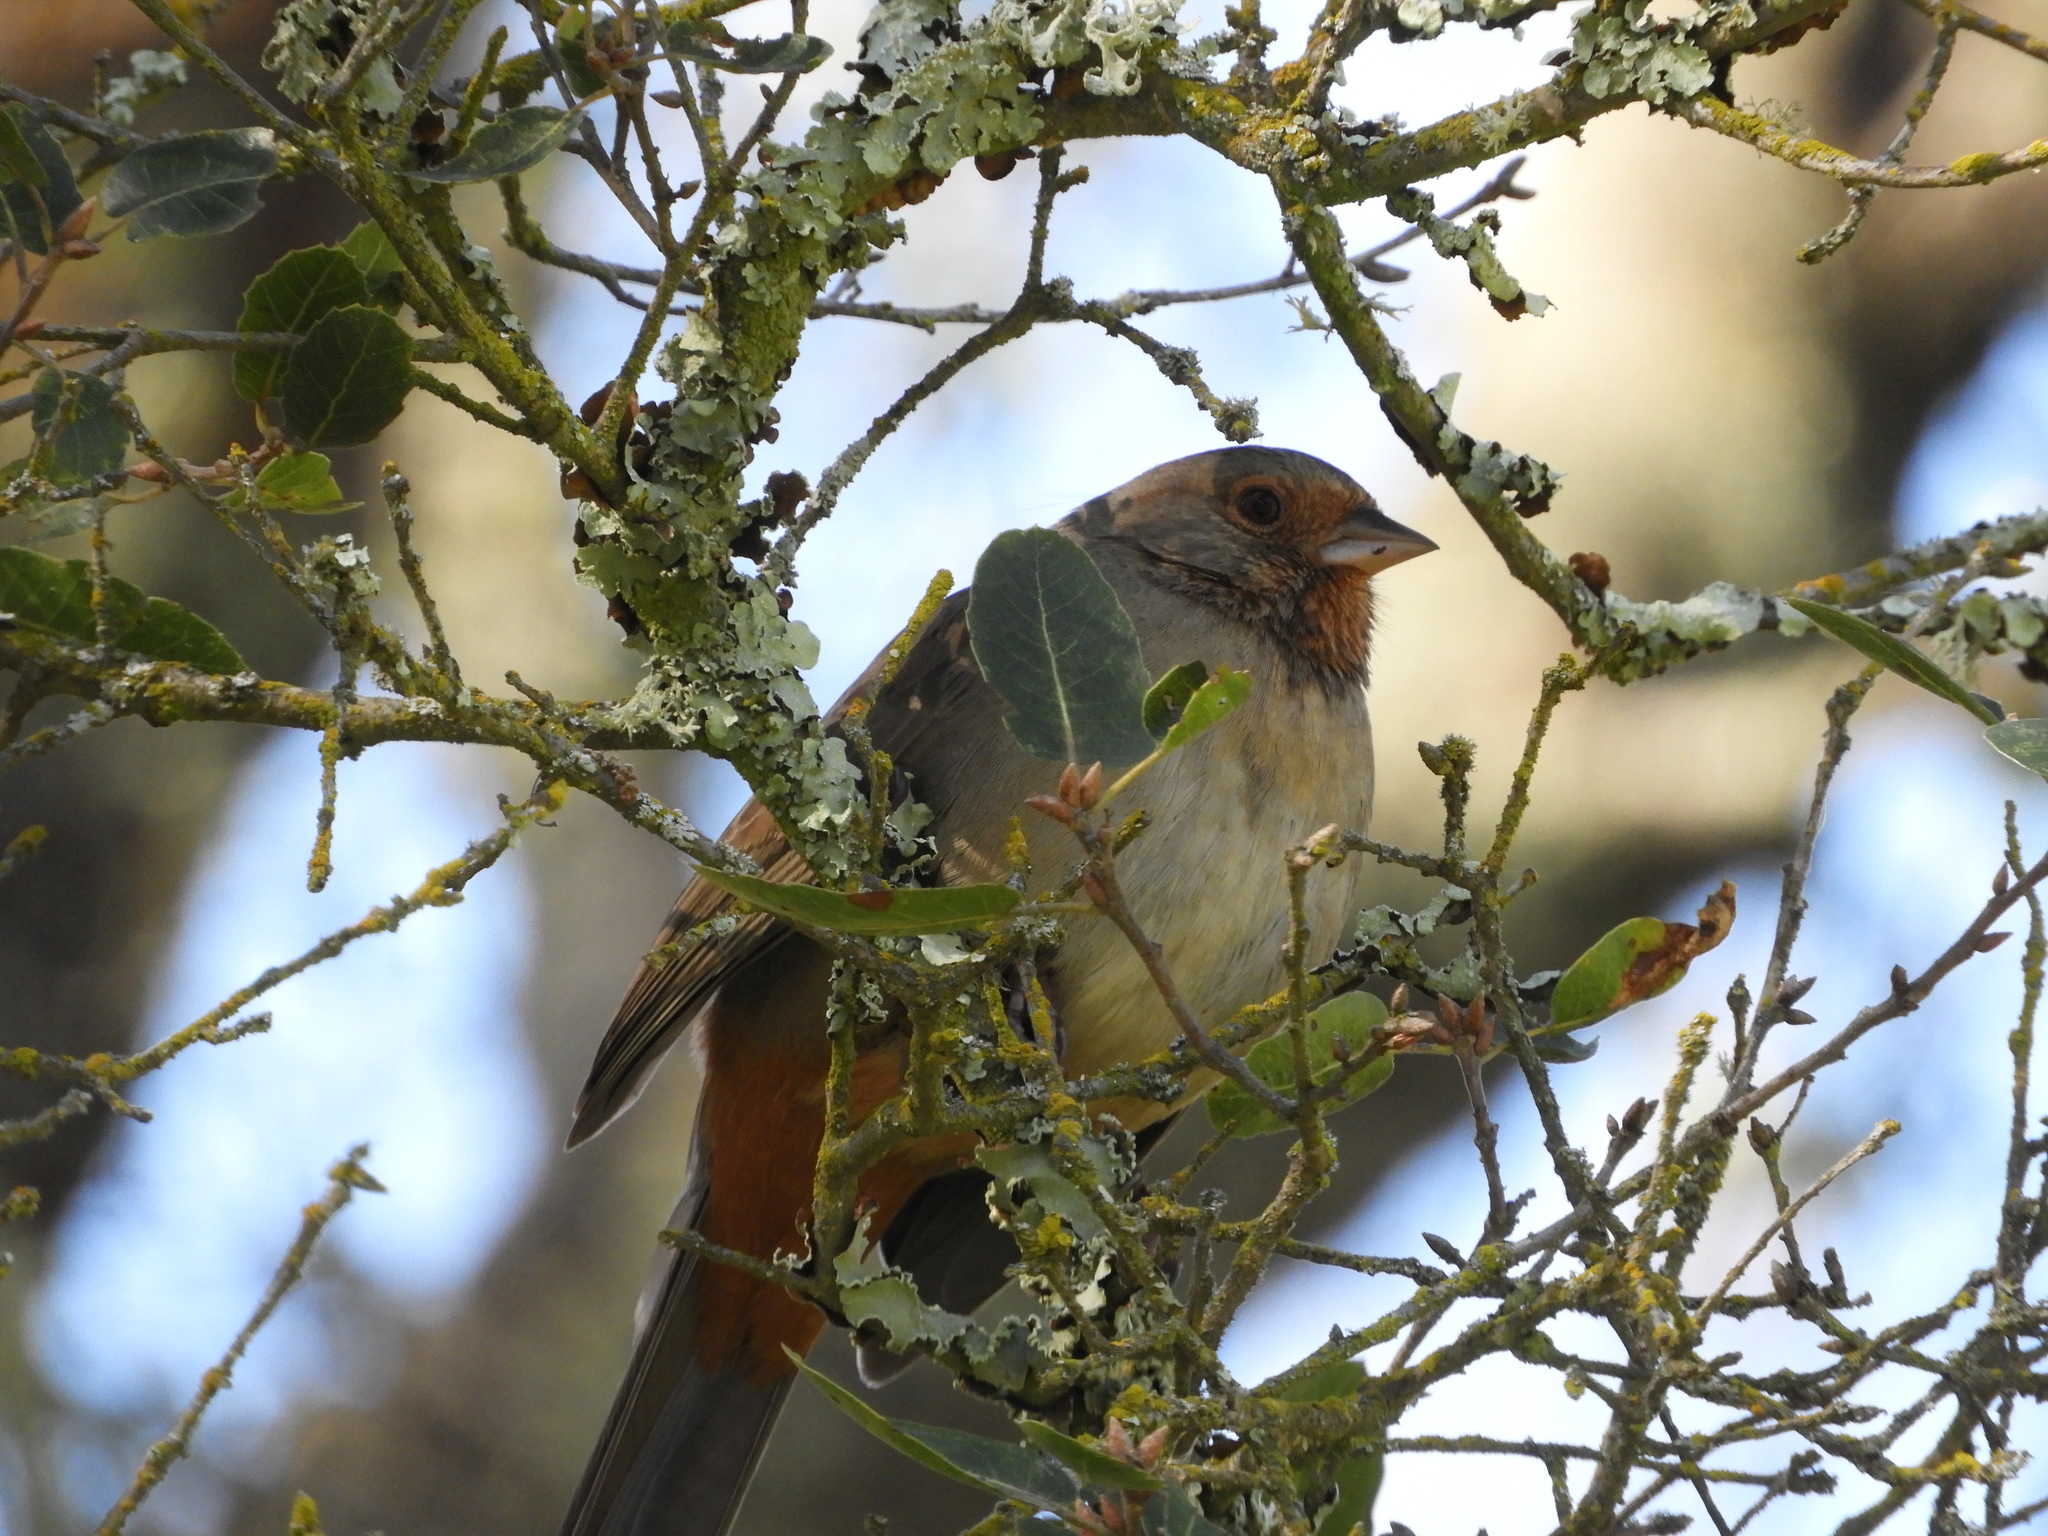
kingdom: Animalia
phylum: Chordata
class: Aves
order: Passeriformes
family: Passerellidae
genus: Melozone
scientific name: Melozone crissalis
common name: California towhee
